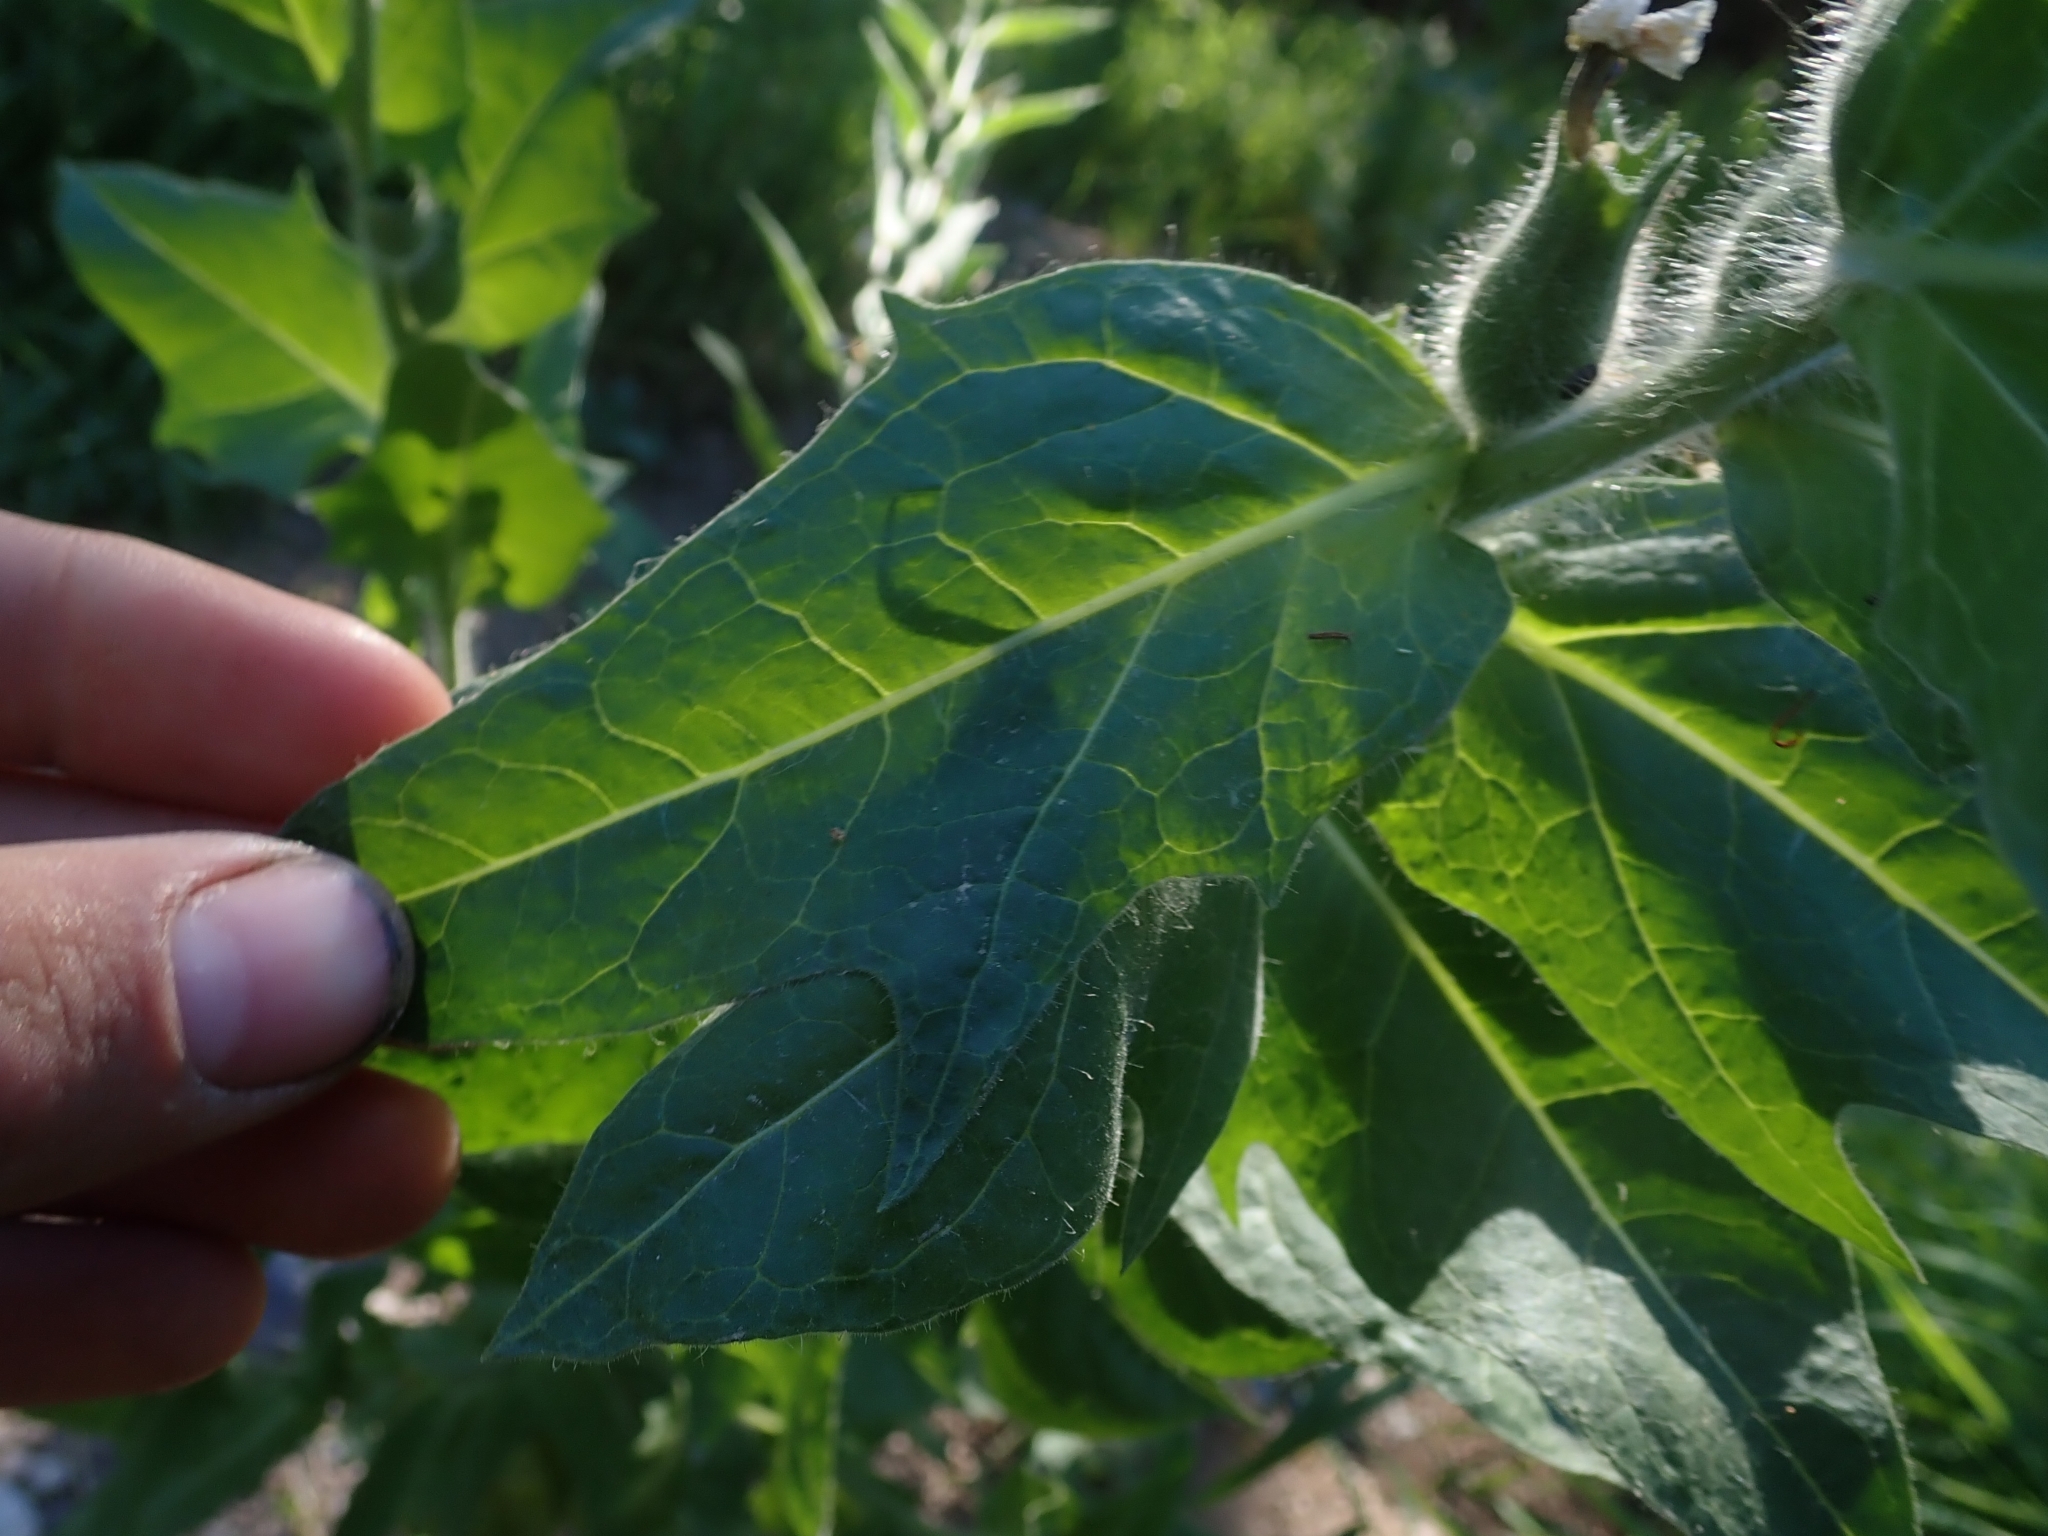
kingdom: Plantae
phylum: Tracheophyta
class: Magnoliopsida
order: Solanales
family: Solanaceae
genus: Hyoscyamus
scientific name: Hyoscyamus niger
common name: Henbane
